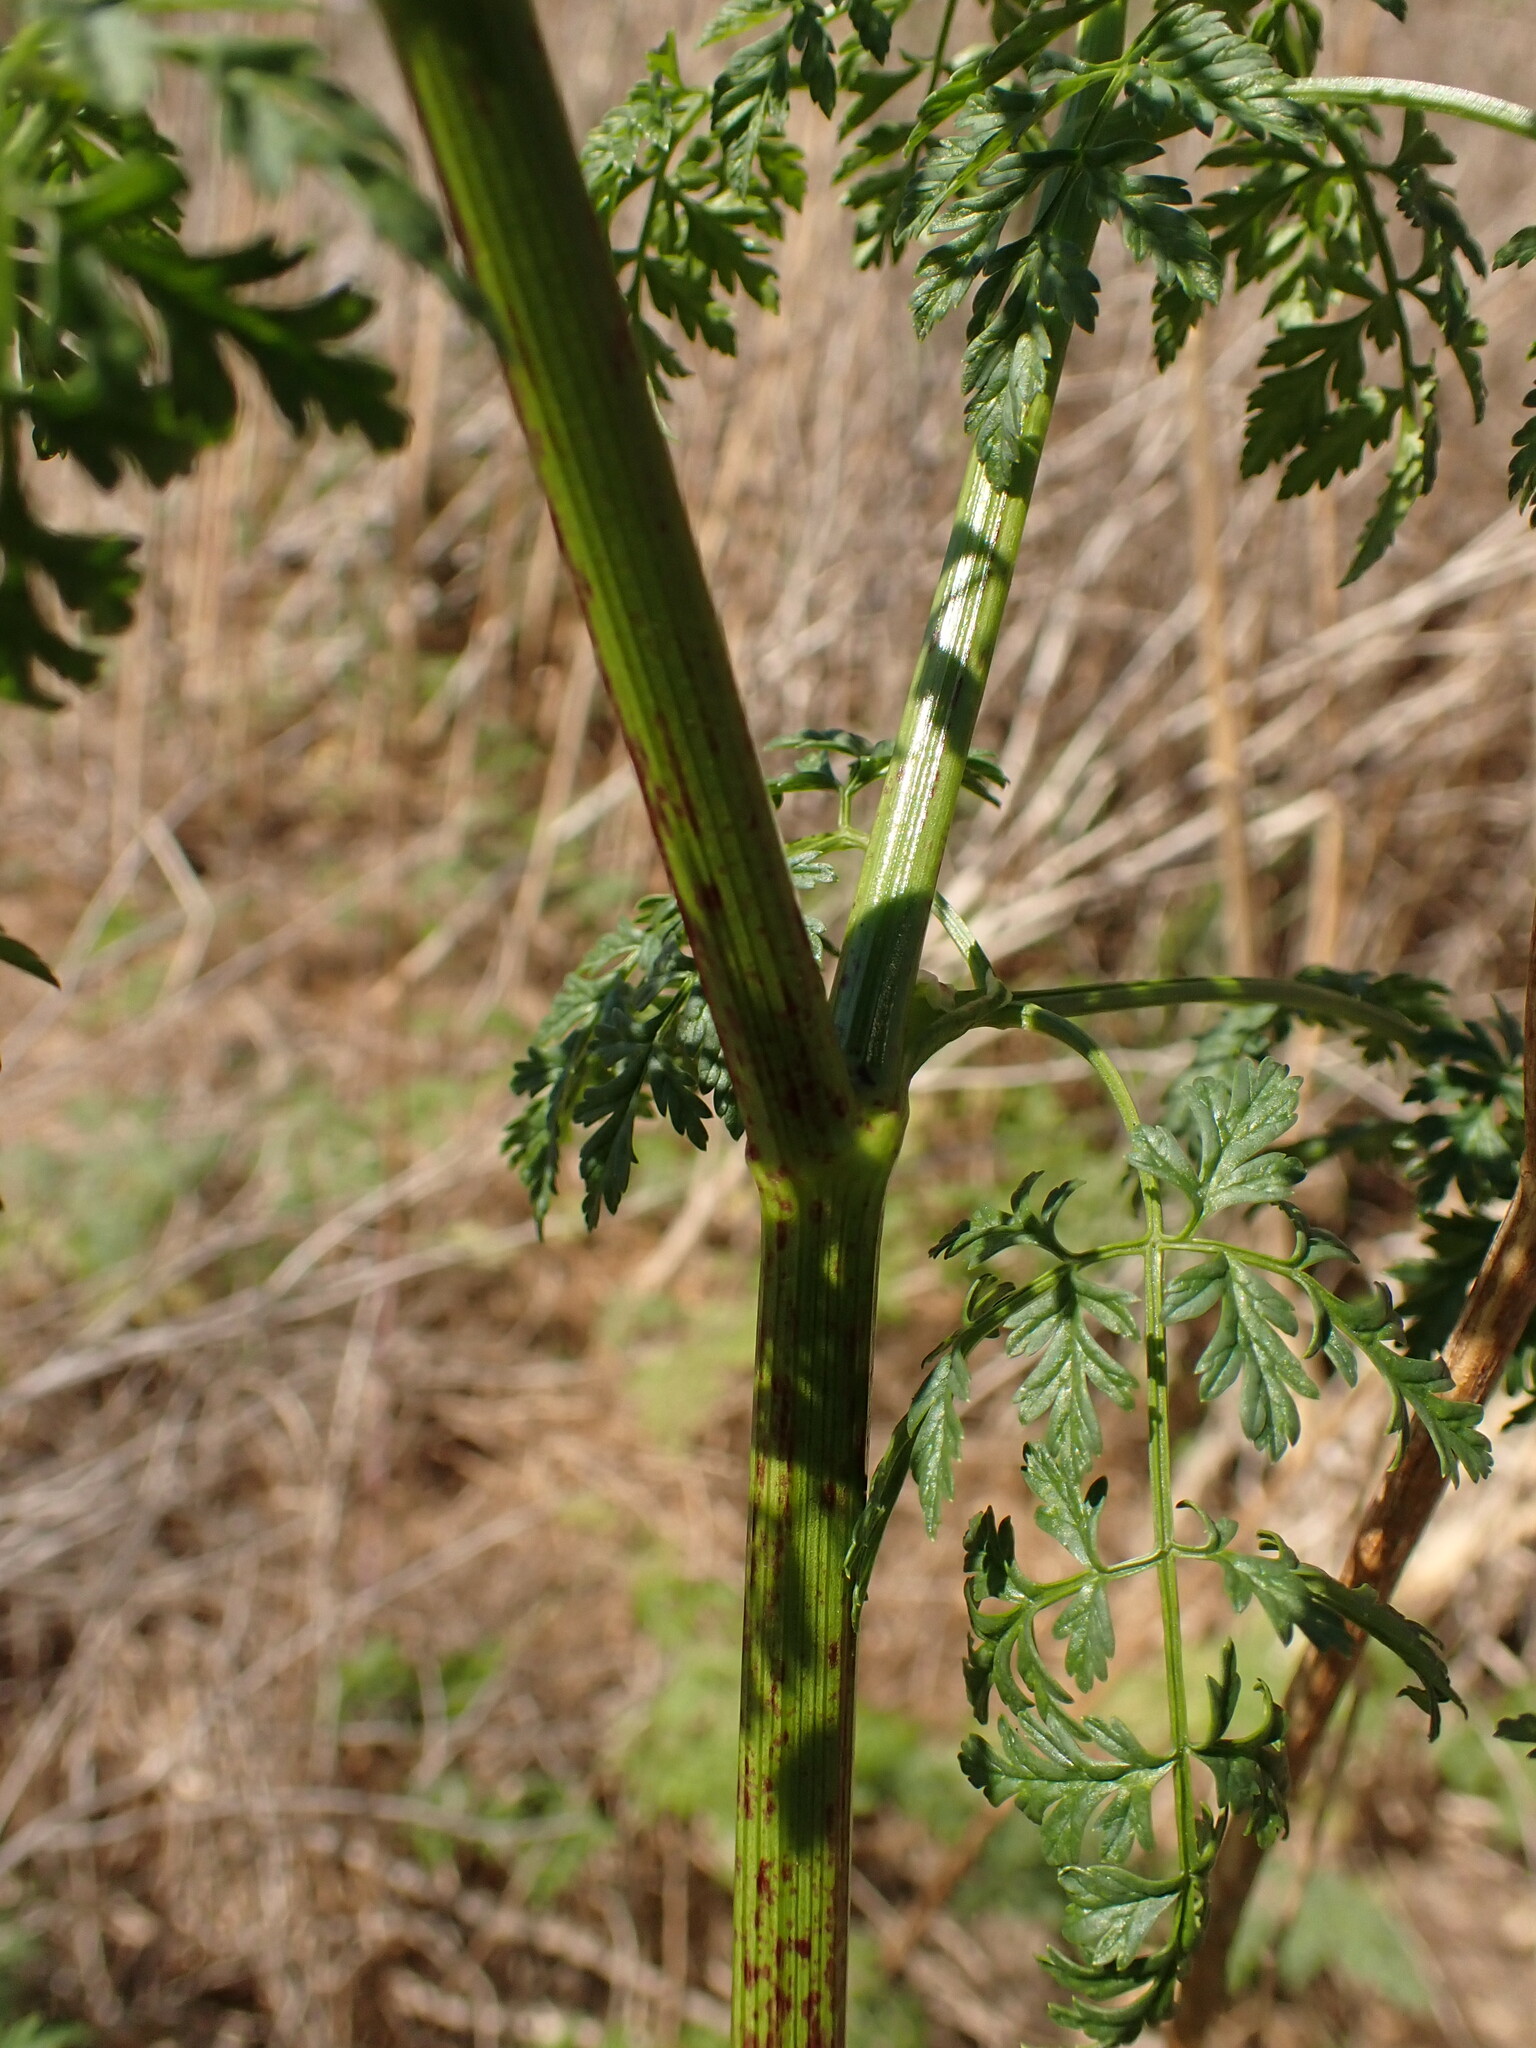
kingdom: Plantae
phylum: Tracheophyta
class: Magnoliopsida
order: Apiales
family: Apiaceae
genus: Conium
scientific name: Conium maculatum
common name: Hemlock
